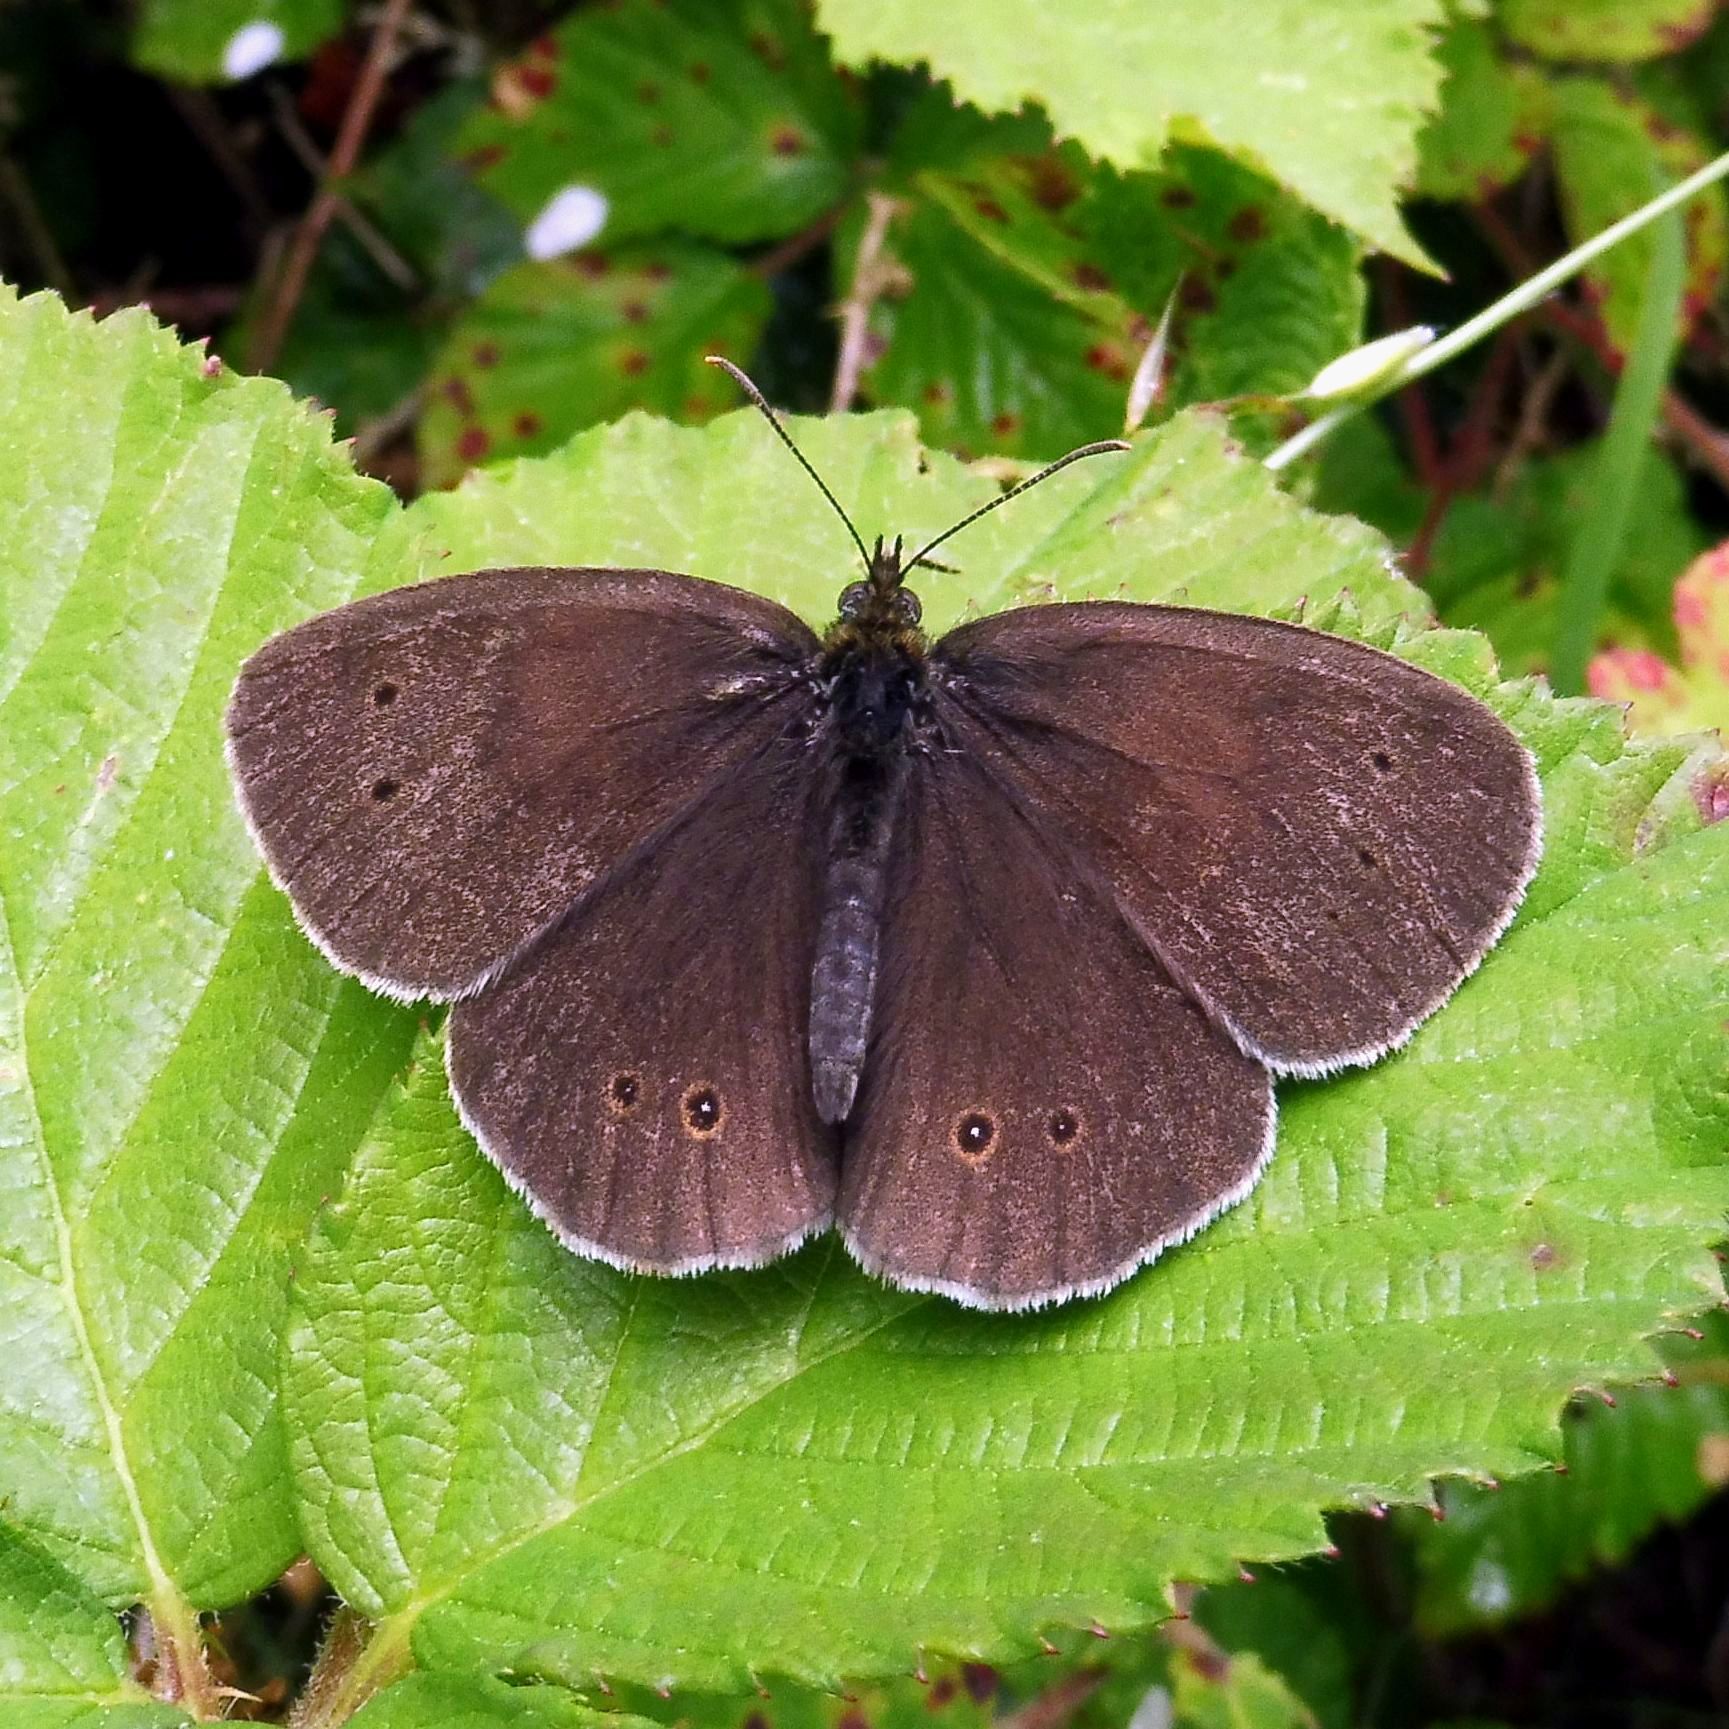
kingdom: Animalia
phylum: Arthropoda
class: Insecta
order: Lepidoptera
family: Nymphalidae
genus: Aphantopus
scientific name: Aphantopus hyperantus
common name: Ringlet
